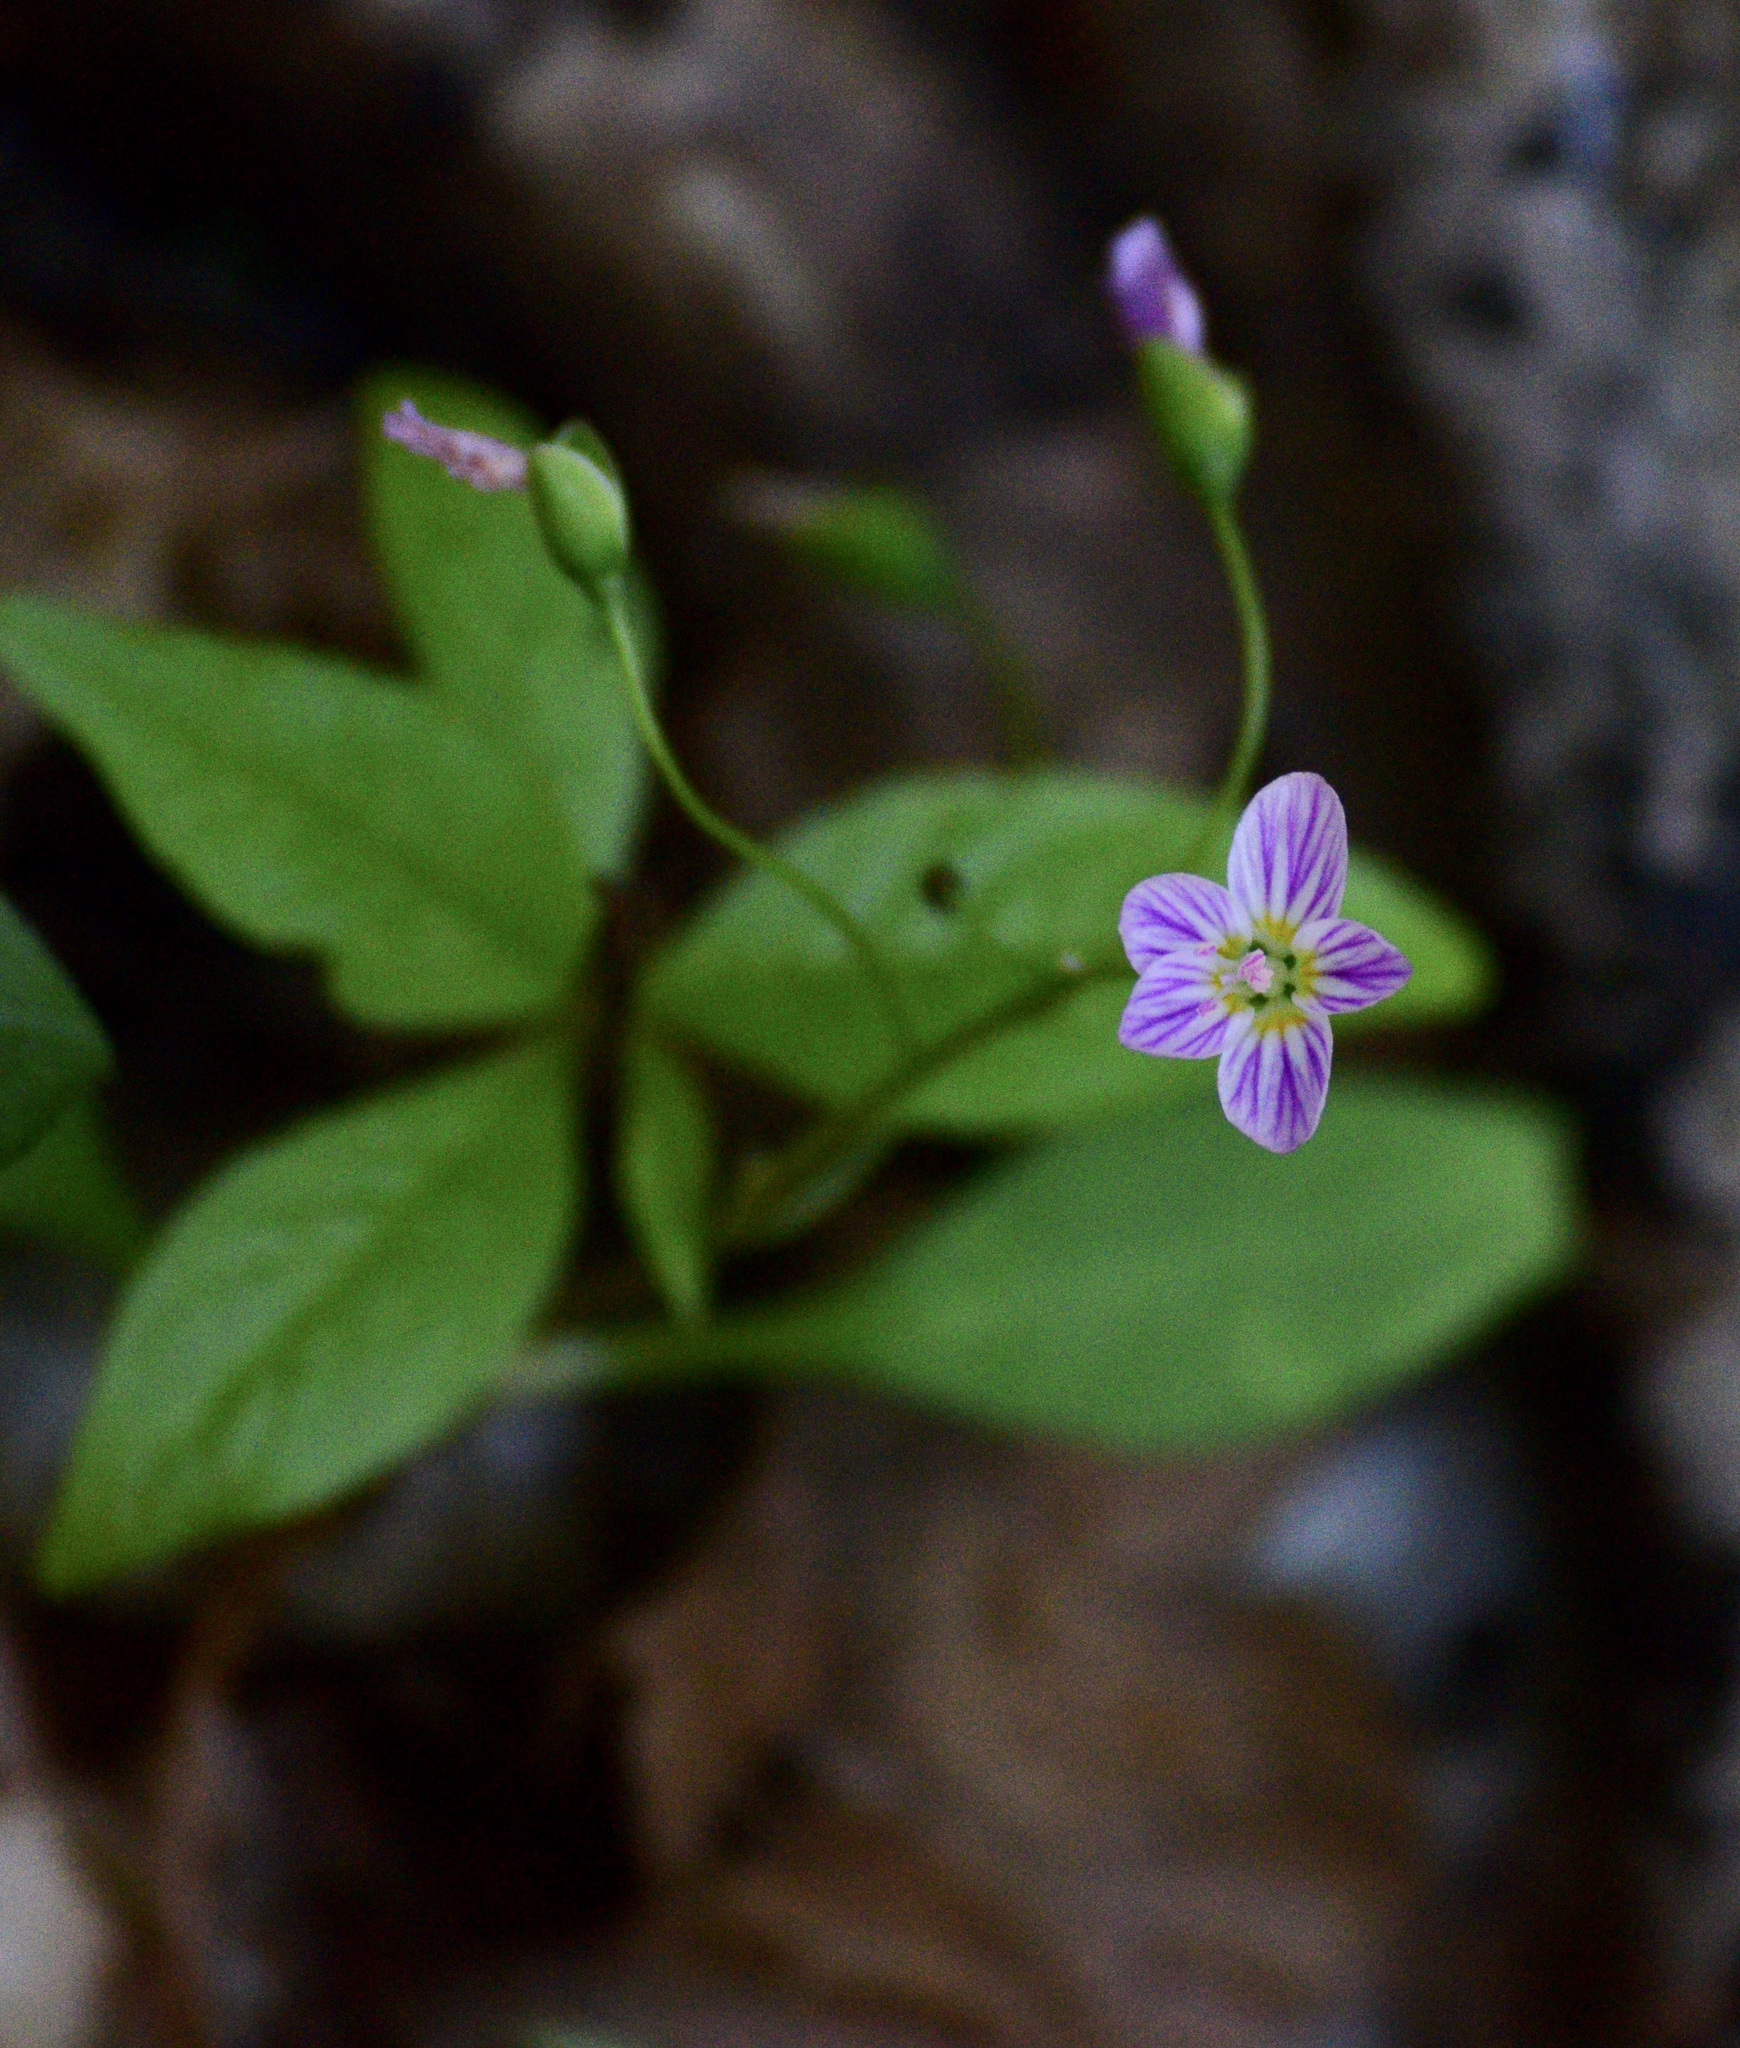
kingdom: Plantae
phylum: Tracheophyta
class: Magnoliopsida
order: Caryophyllales
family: Montiaceae
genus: Claytonia
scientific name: Claytonia caroliniana
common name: Carolina spring beauty
